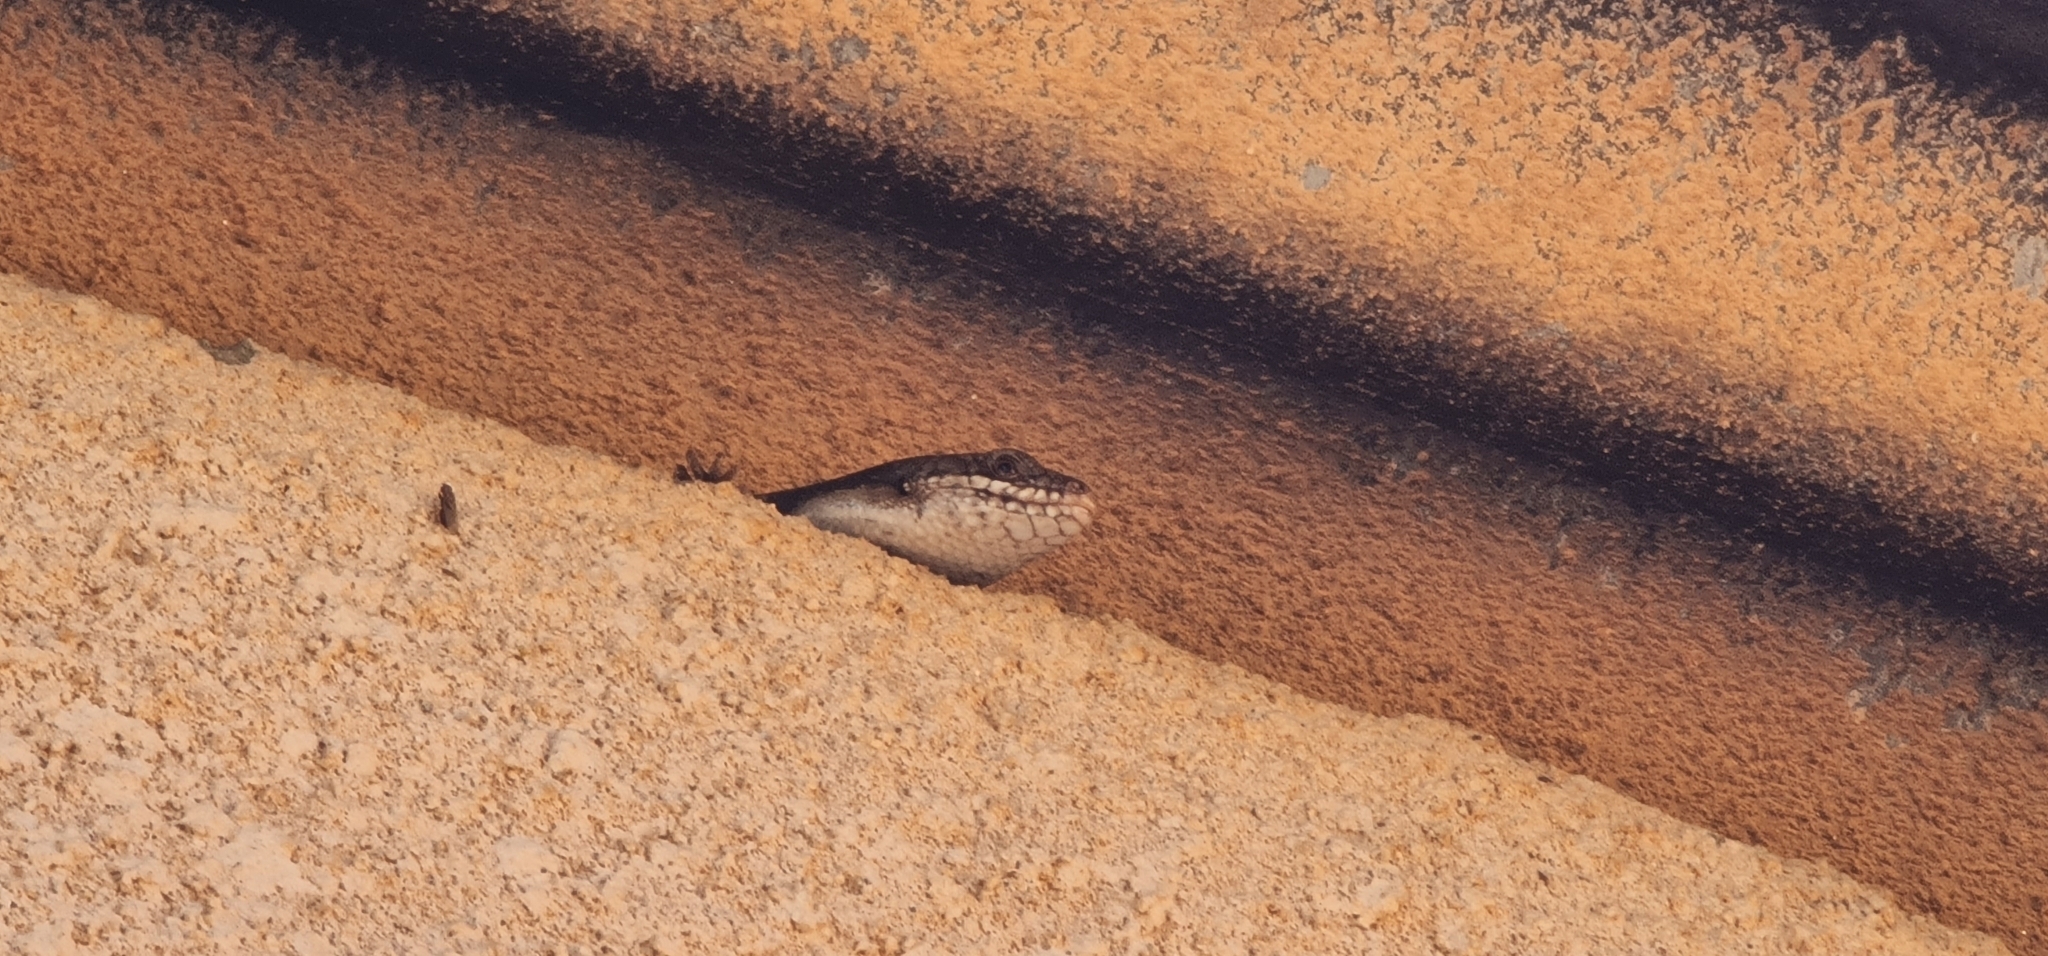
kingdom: Animalia
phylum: Chordata
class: Squamata
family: Scincidae
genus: Egernia
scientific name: Egernia striolata
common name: Tree skink
